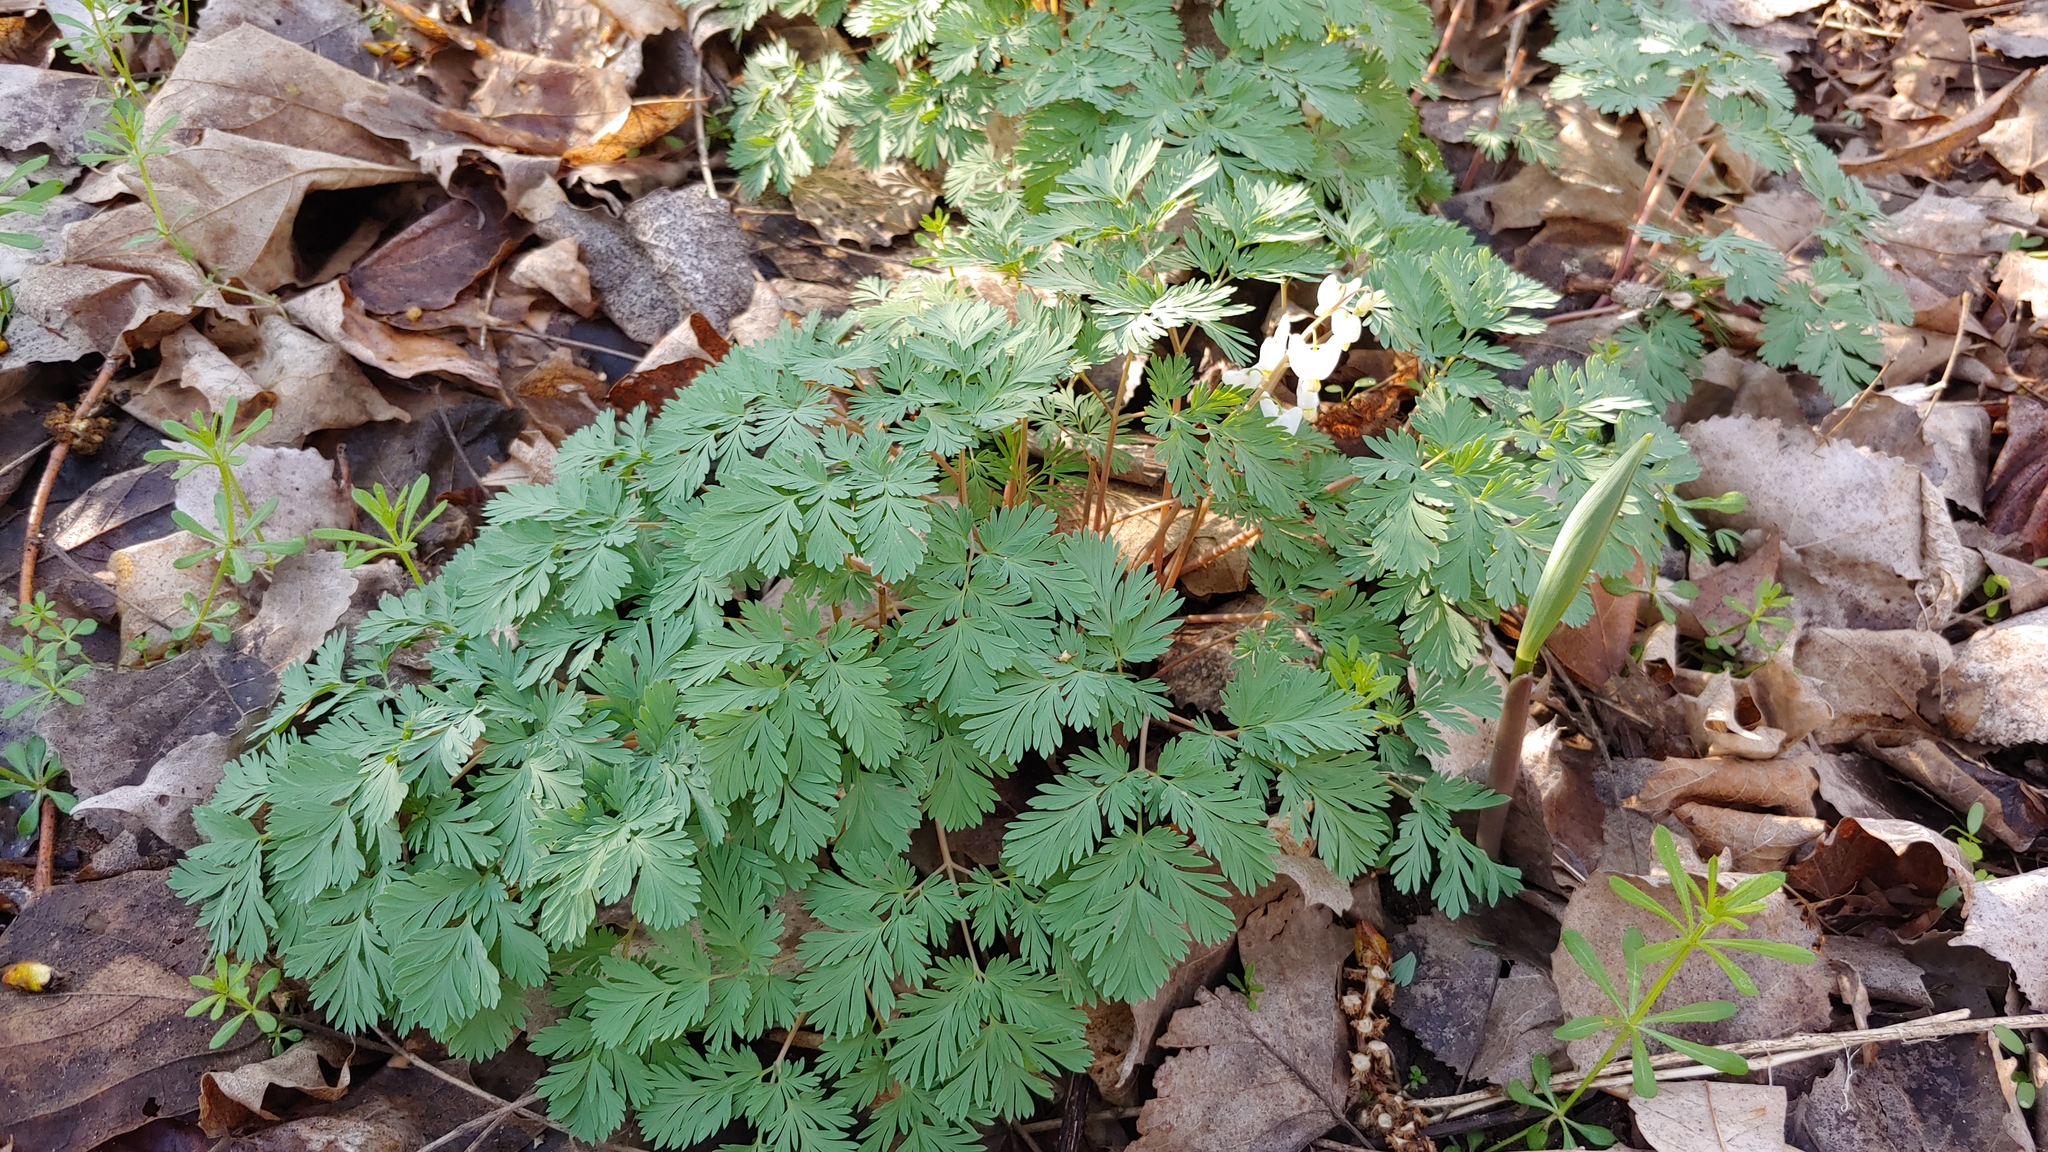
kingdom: Plantae
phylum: Tracheophyta
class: Magnoliopsida
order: Ranunculales
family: Papaveraceae
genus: Dicentra
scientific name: Dicentra cucullaria
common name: Dutchman's breeches
